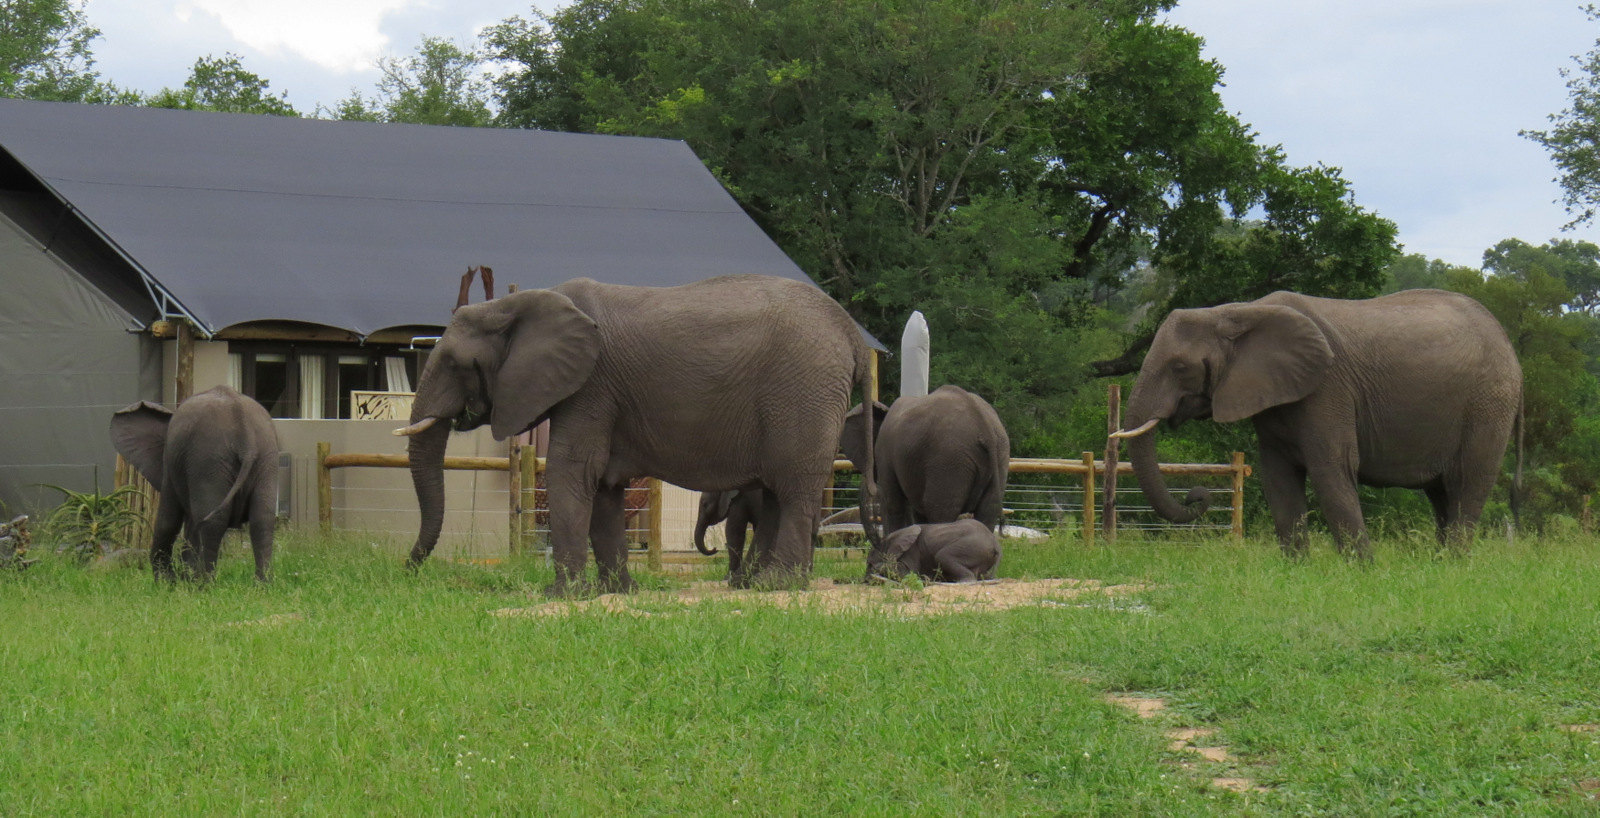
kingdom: Animalia
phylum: Chordata
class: Mammalia
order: Proboscidea
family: Elephantidae
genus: Loxodonta
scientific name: Loxodonta africana
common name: African elephant
